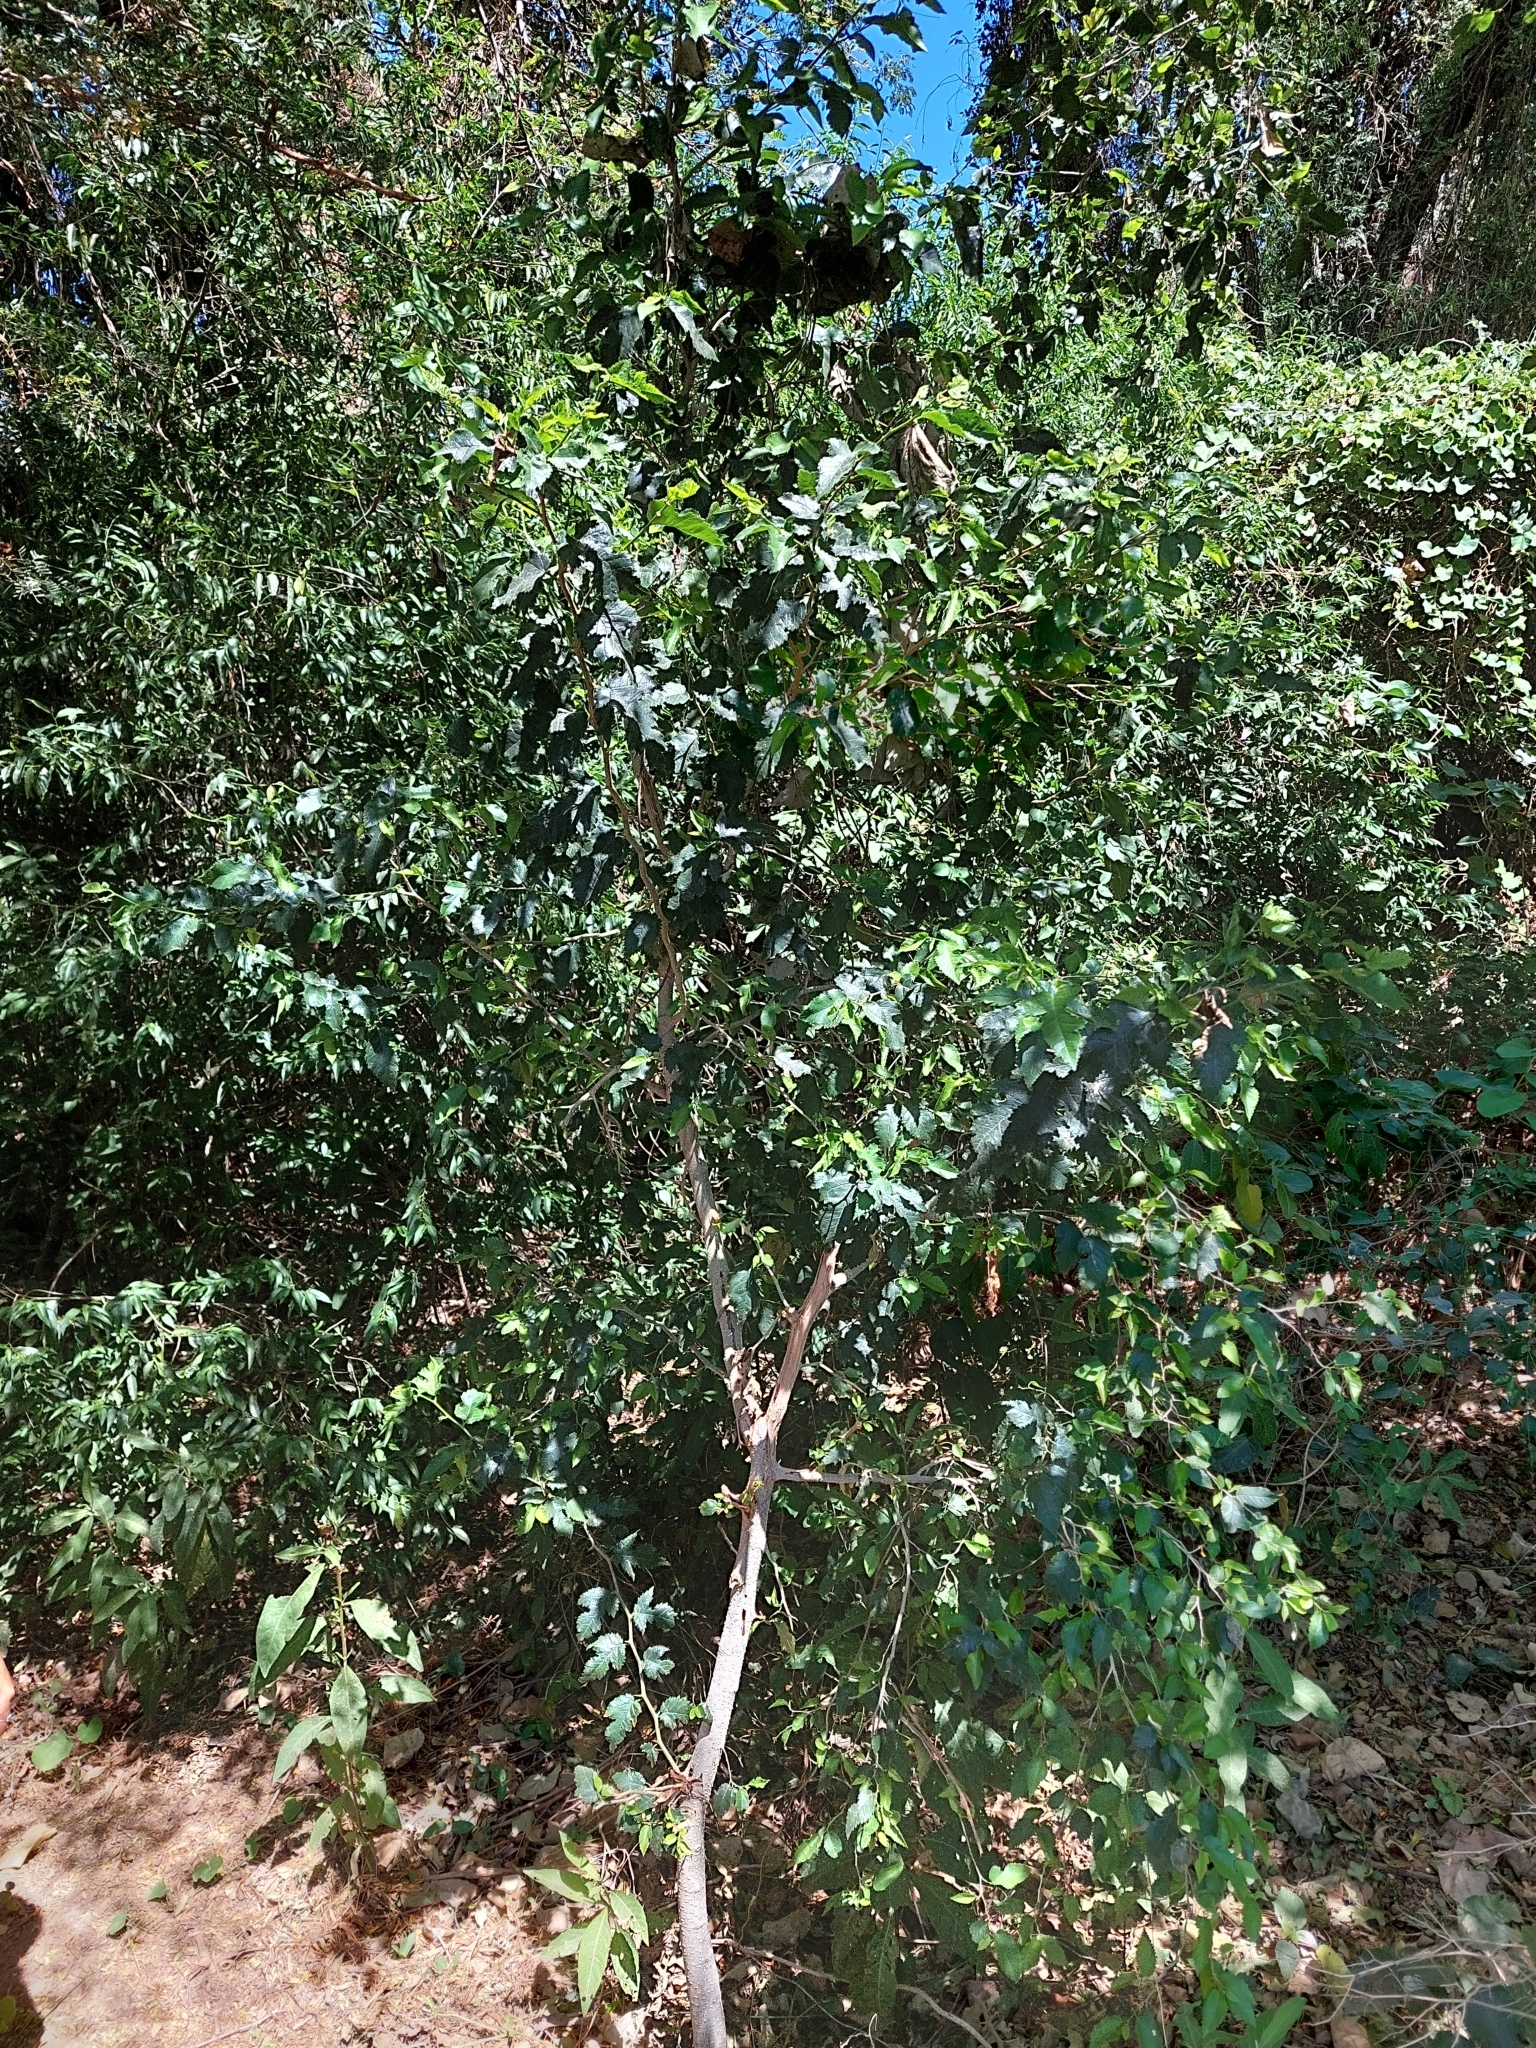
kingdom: Plantae
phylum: Tracheophyta
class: Magnoliopsida
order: Rosales
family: Moraceae
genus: Maclura
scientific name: Maclura tinctoria
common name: Old fustic
